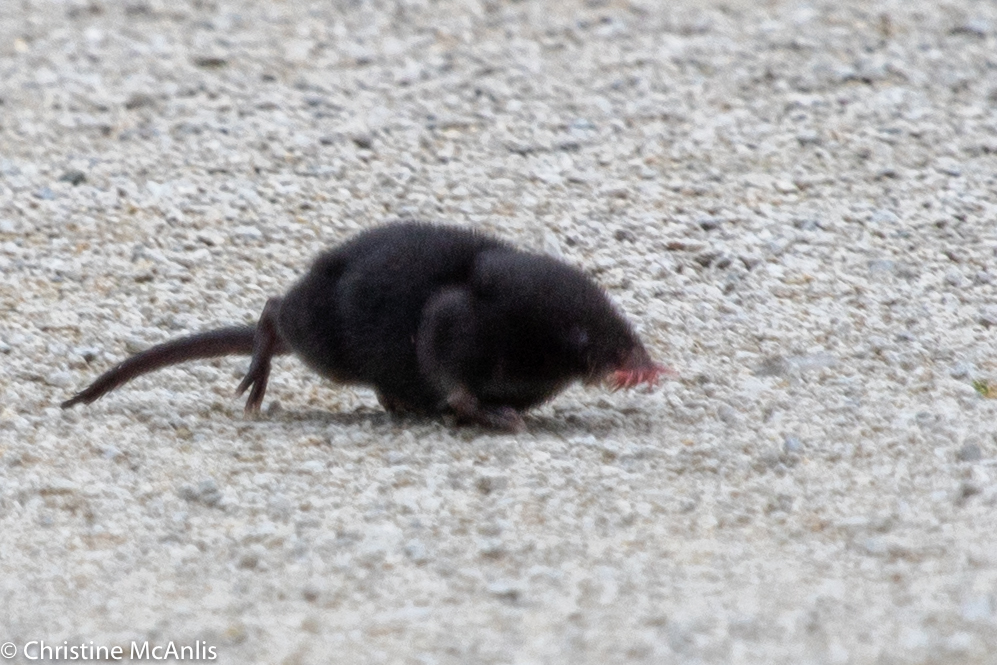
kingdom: Animalia
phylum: Chordata
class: Mammalia
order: Soricomorpha
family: Talpidae
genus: Condylura
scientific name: Condylura cristata
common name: Star-nosed mole
